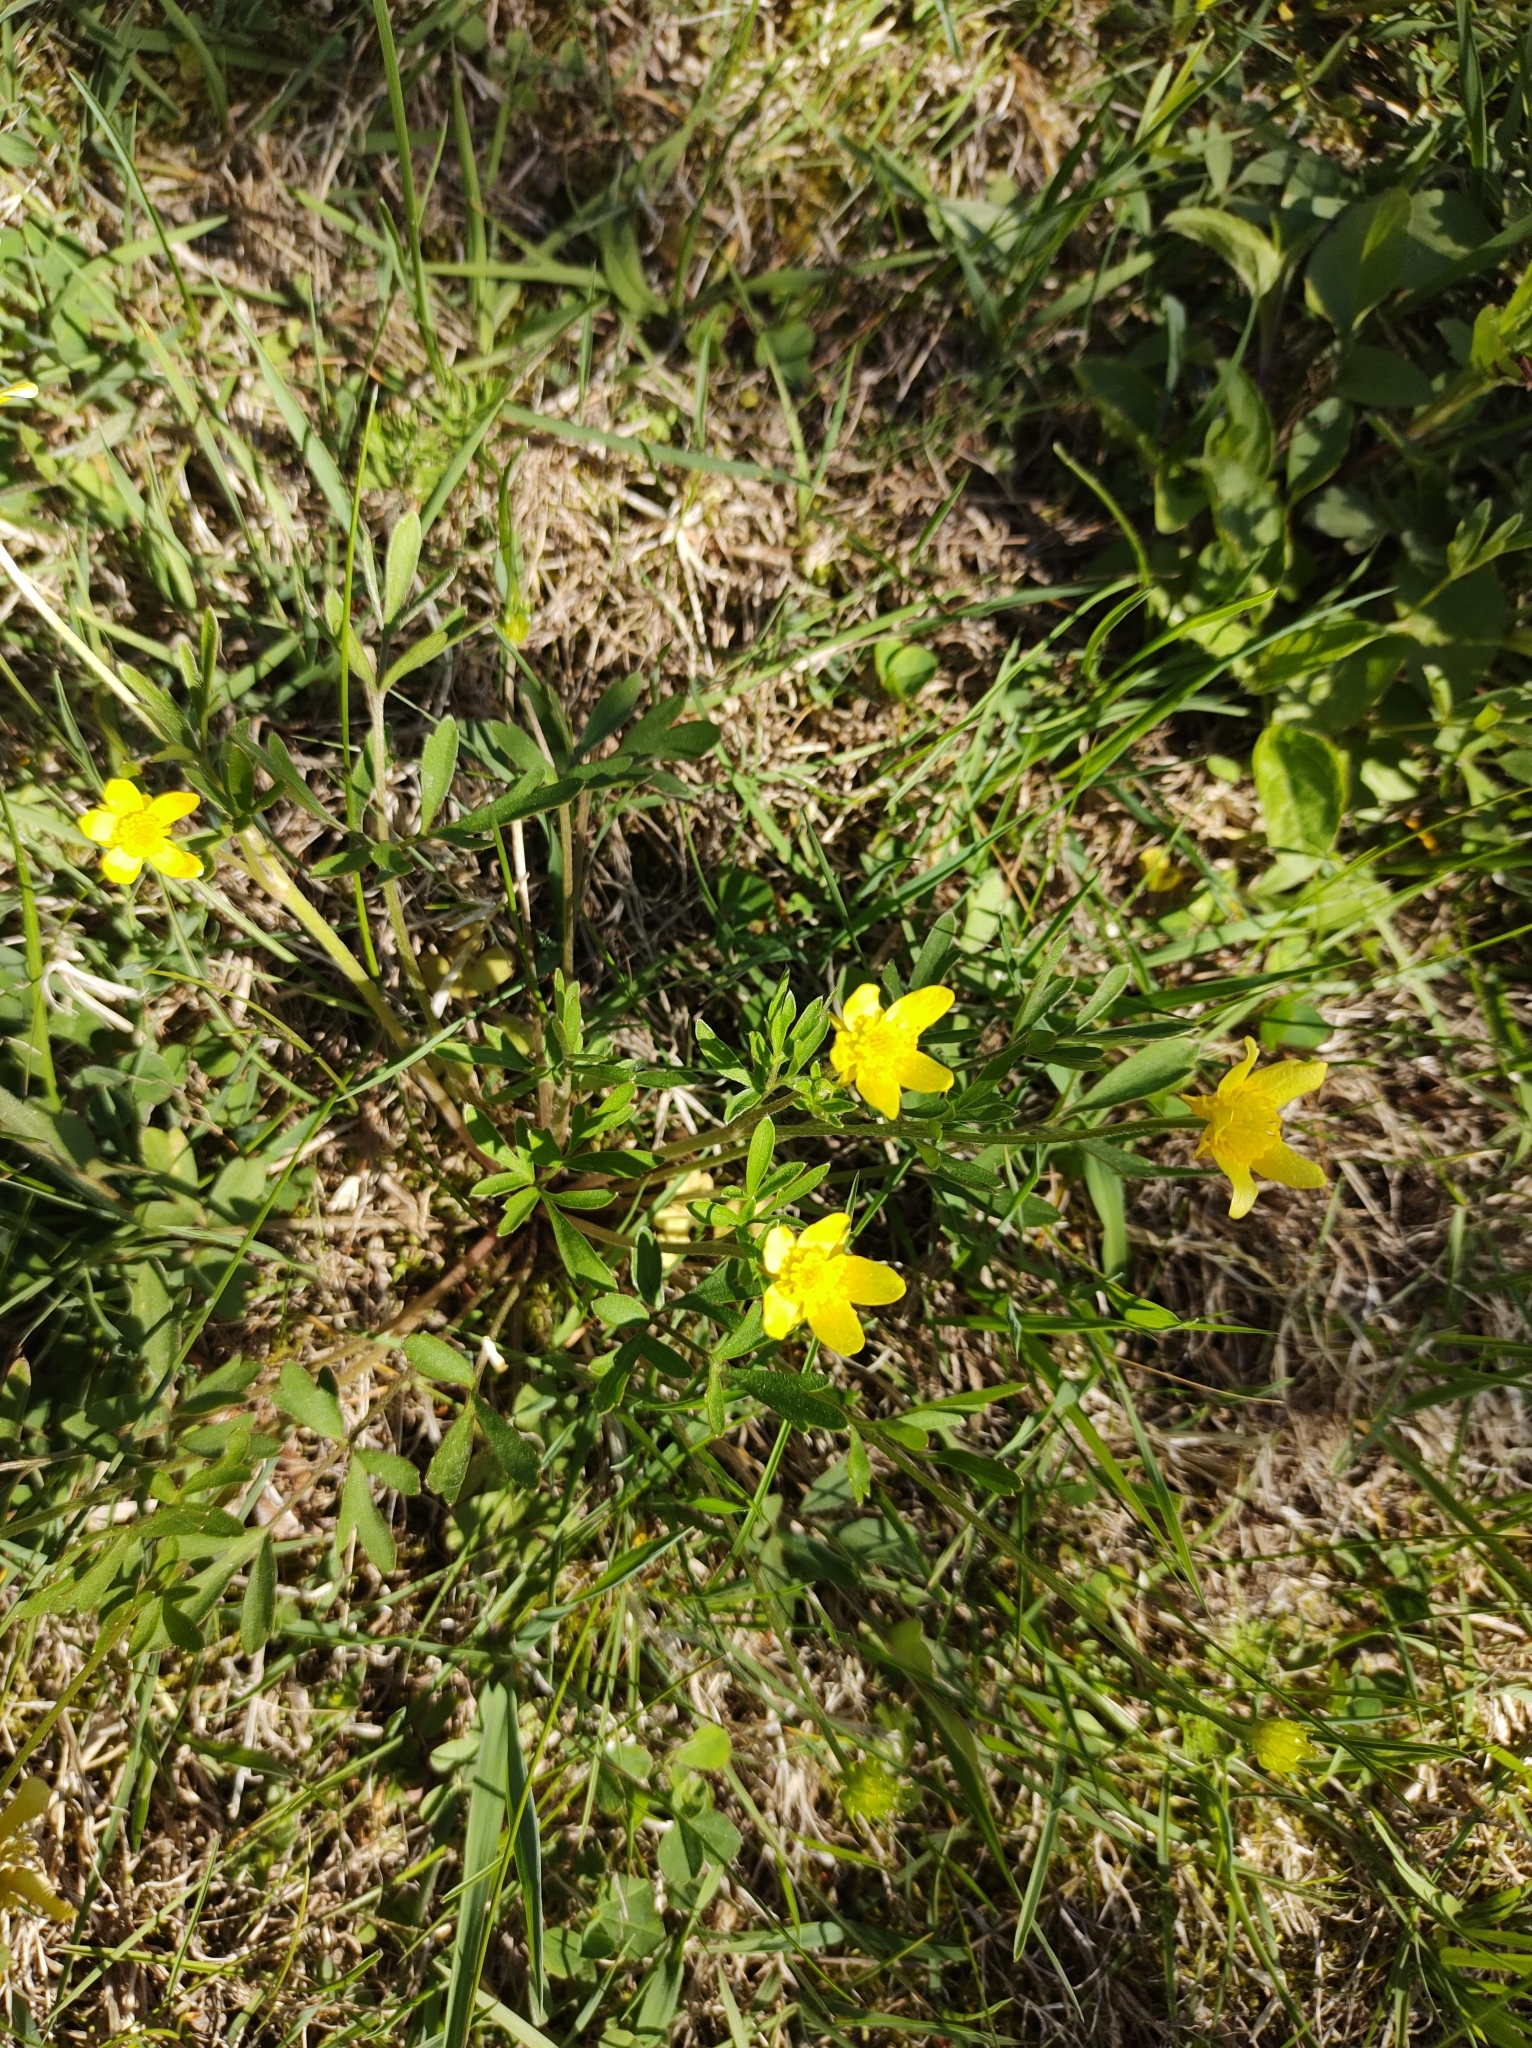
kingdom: Plantae
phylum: Tracheophyta
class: Magnoliopsida
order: Ranunculales
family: Ranunculaceae
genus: Ranunculus
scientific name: Ranunculus fascicularis
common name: Early buttercup
